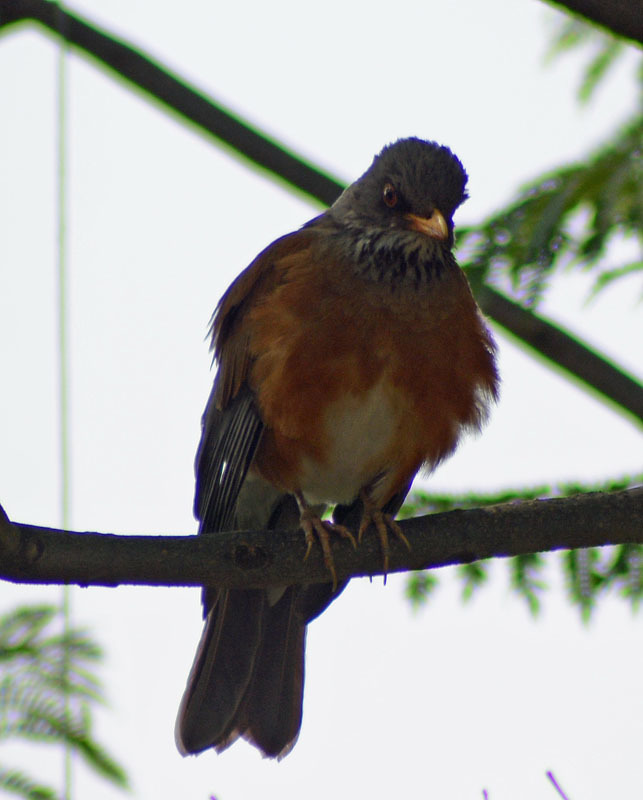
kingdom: Animalia
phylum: Chordata
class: Aves
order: Passeriformes
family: Turdidae
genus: Turdus
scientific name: Turdus rufopalliatus
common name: Rufous-backed robin
